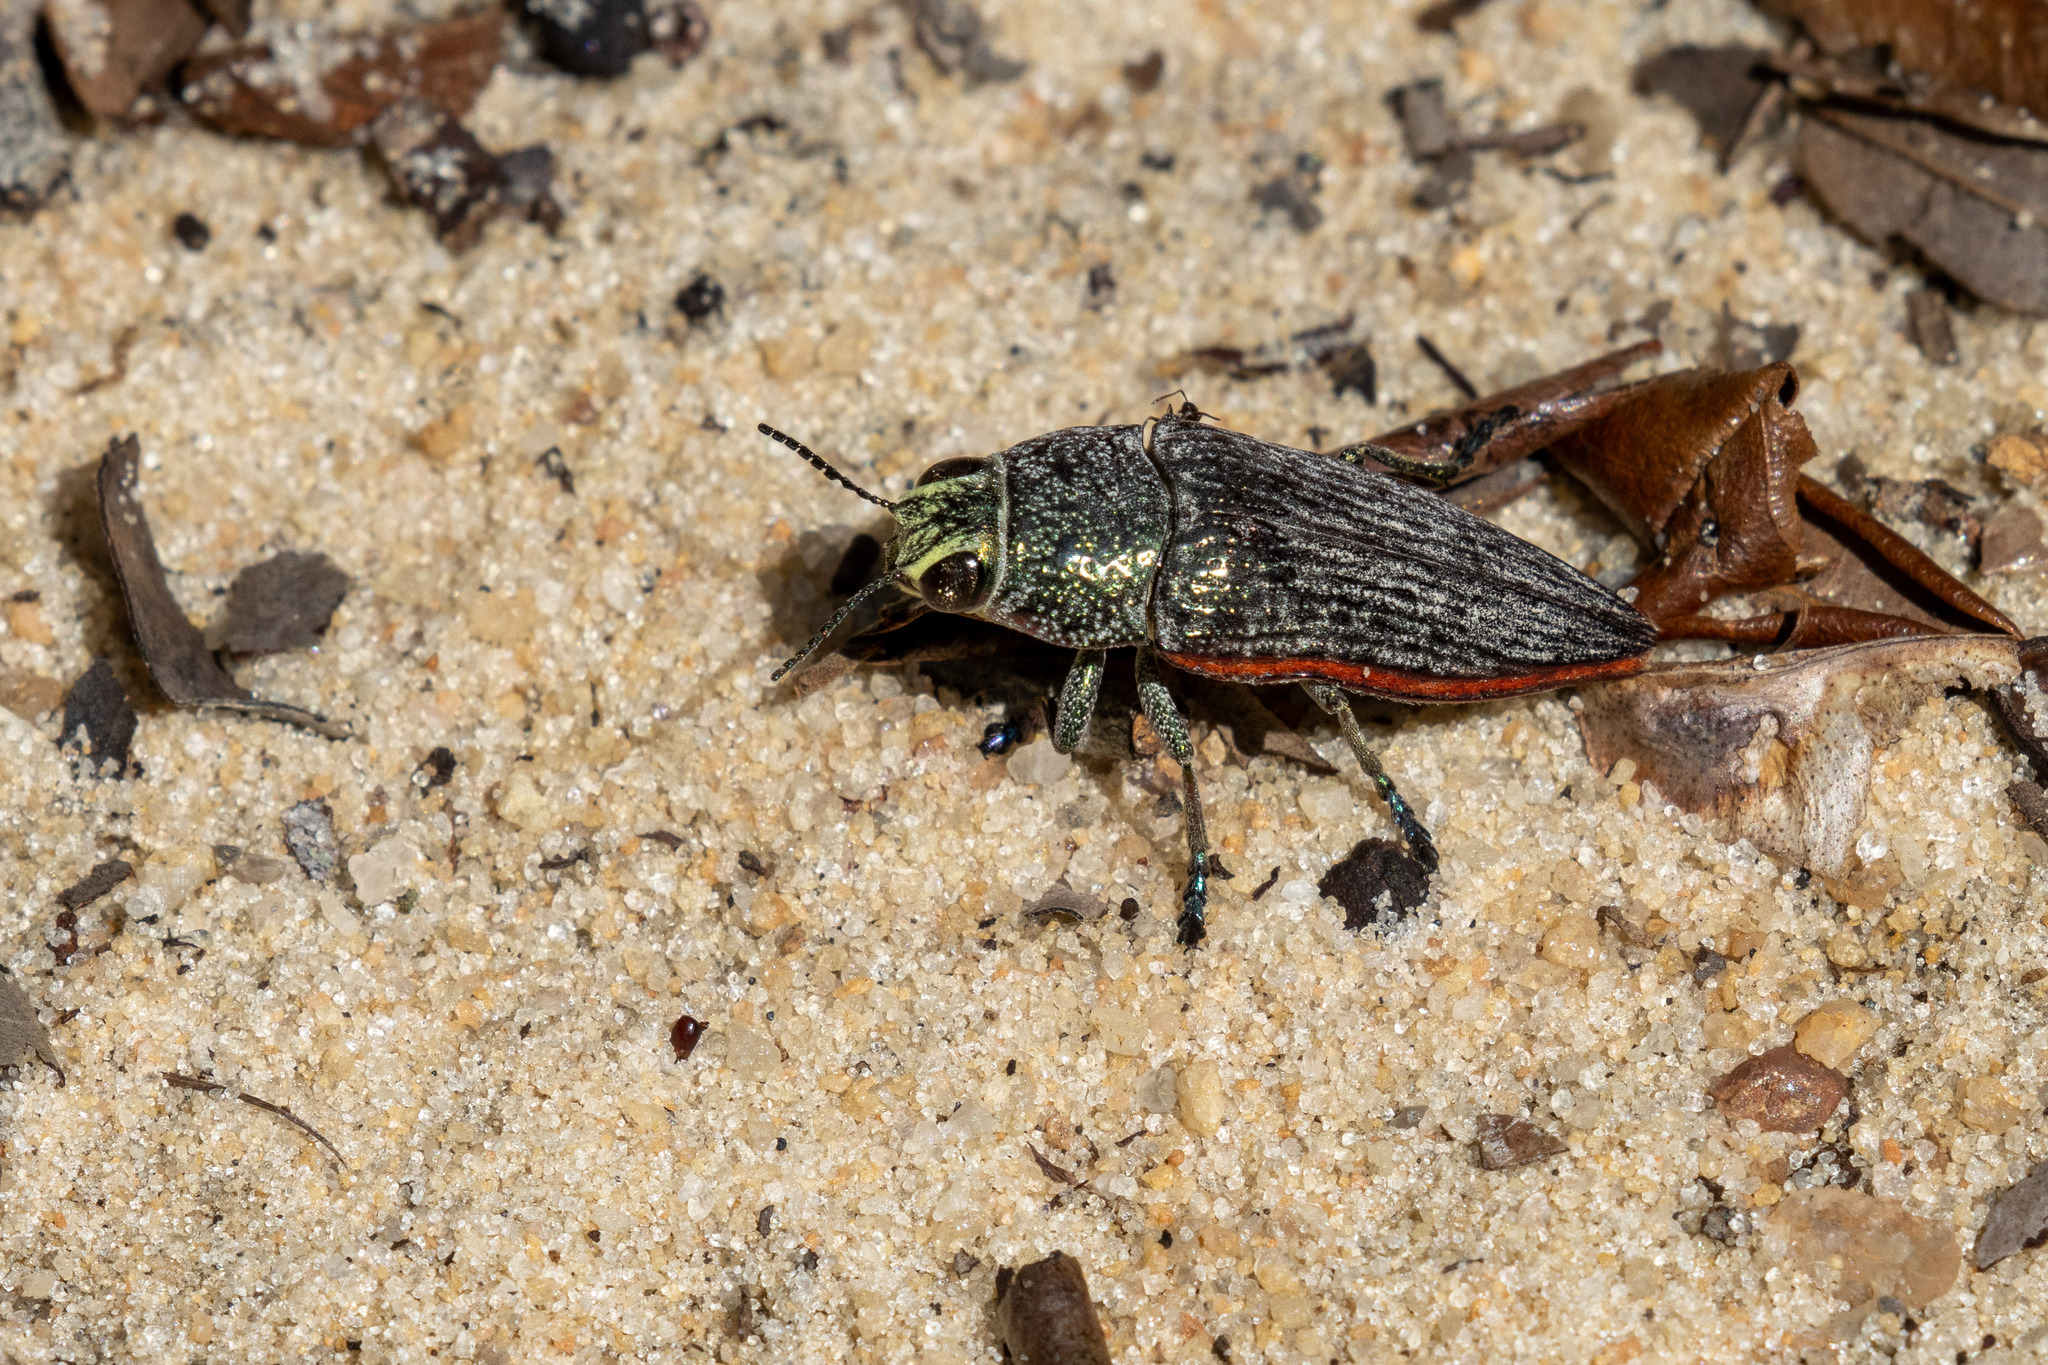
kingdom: Animalia
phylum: Arthropoda
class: Insecta
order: Coleoptera
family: Buprestidae
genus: Lampetis
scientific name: Lampetis roseocarinata
